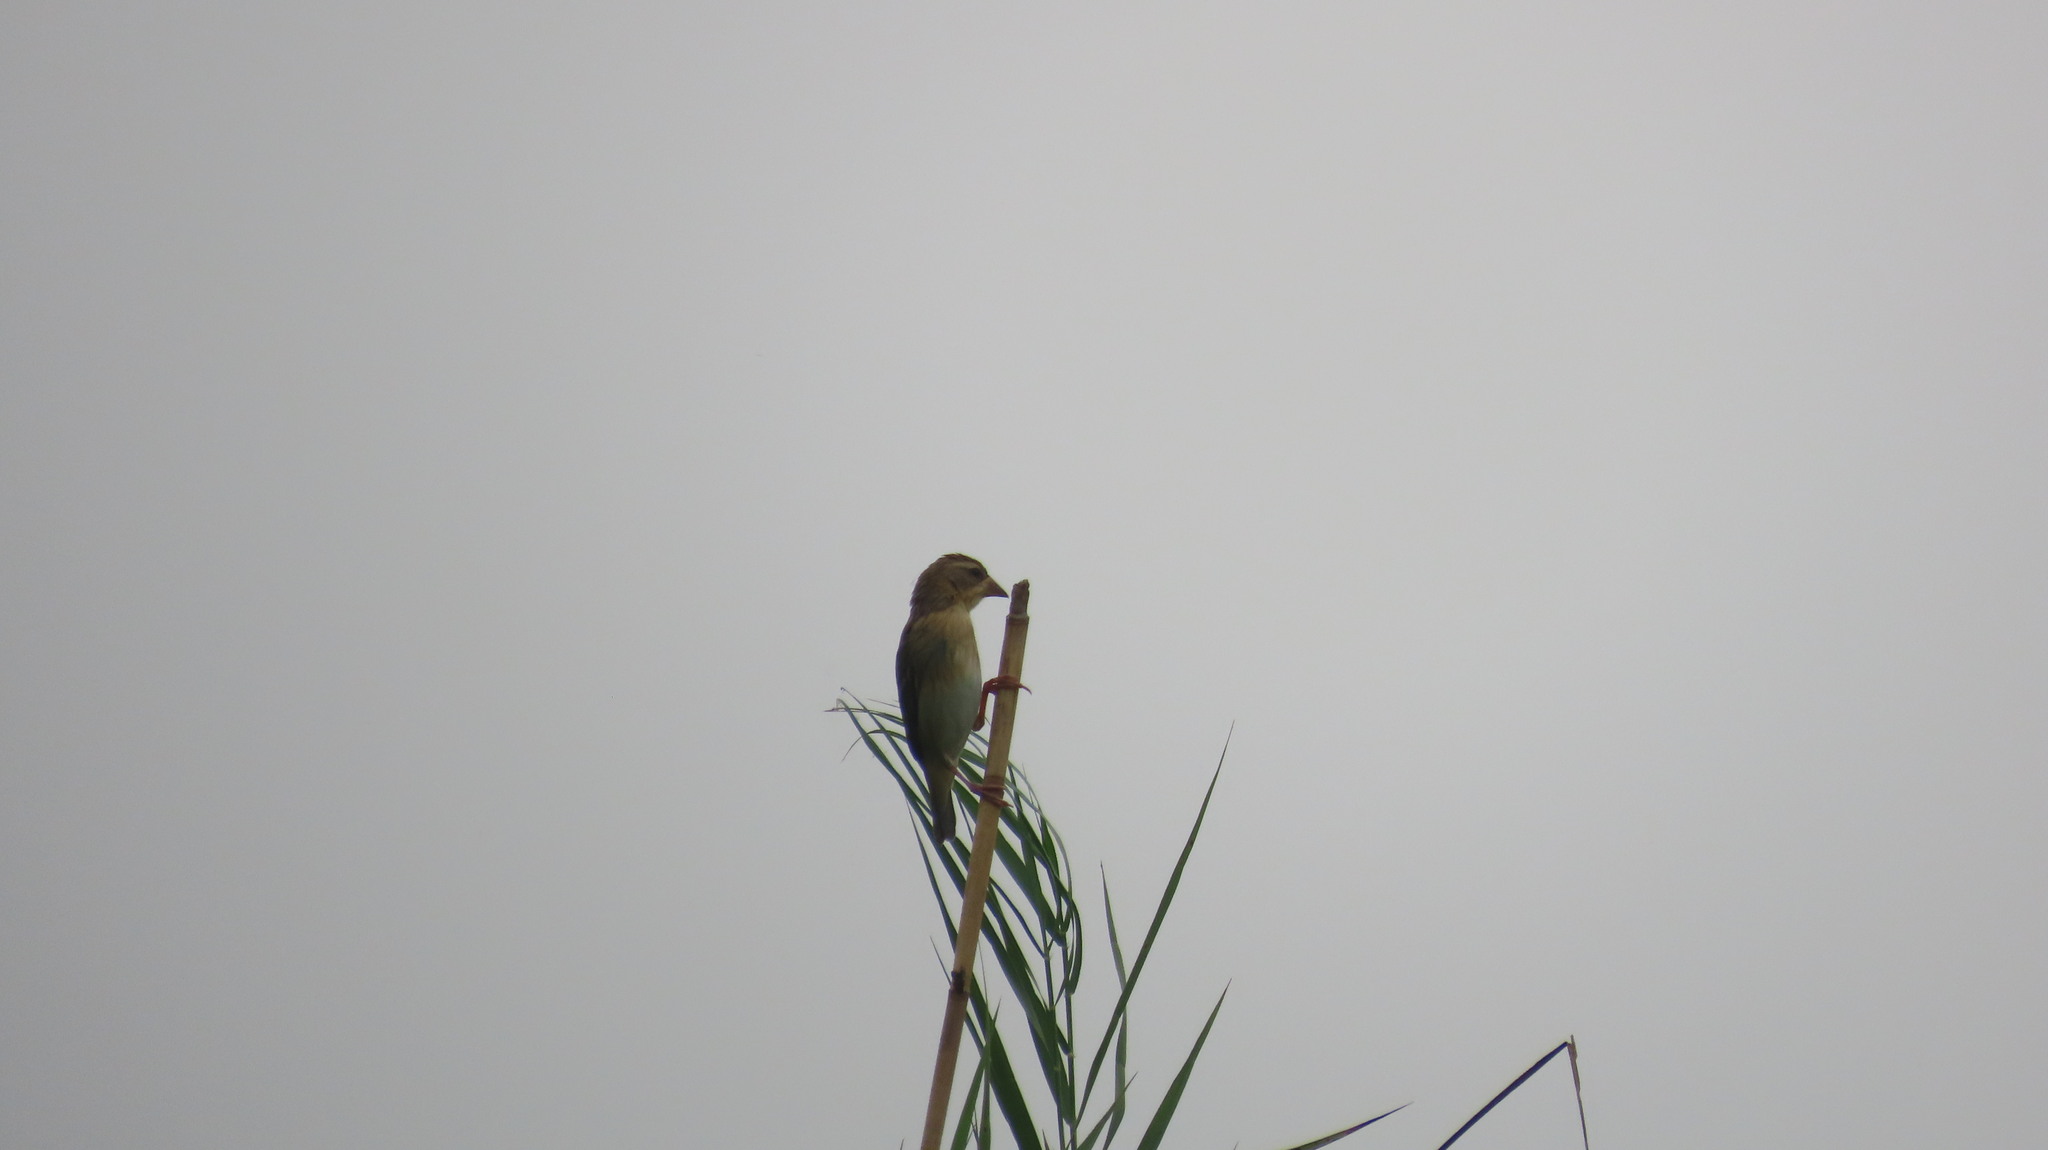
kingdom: Animalia
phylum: Chordata
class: Aves
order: Passeriformes
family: Ploceidae
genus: Ploceus
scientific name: Ploceus philippinus
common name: Baya weaver
